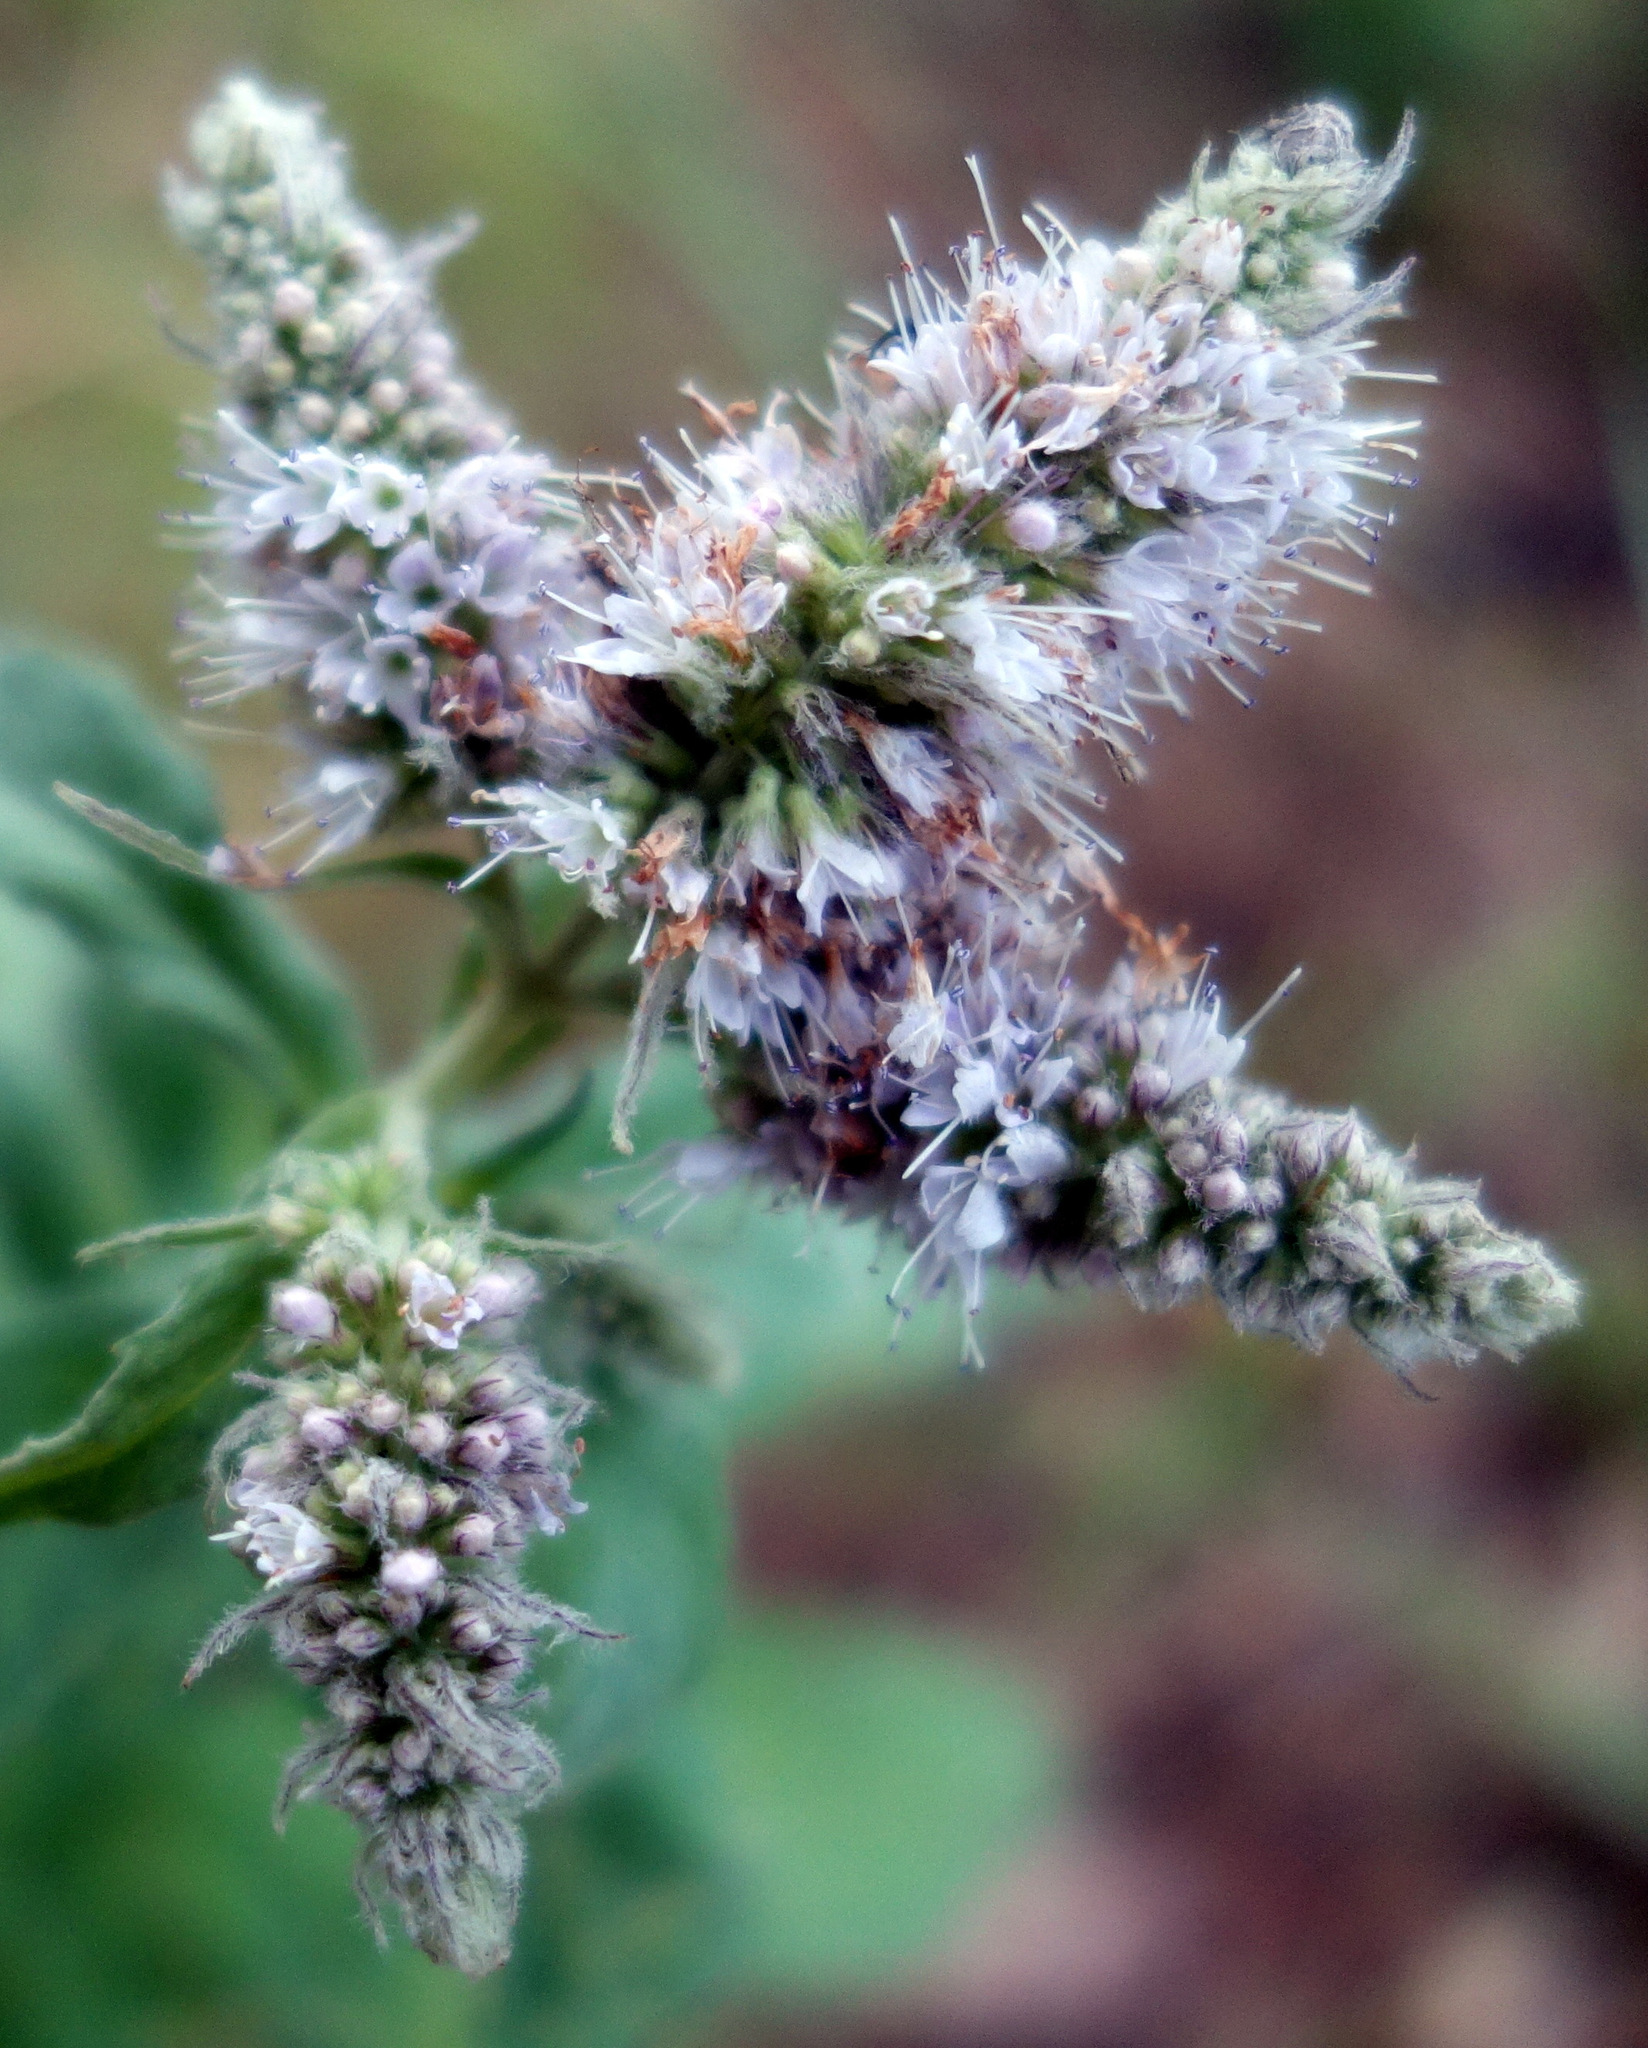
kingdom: Plantae
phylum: Tracheophyta
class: Magnoliopsida
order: Lamiales
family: Lamiaceae
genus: Mentha
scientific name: Mentha longifolia
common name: Horse mint
